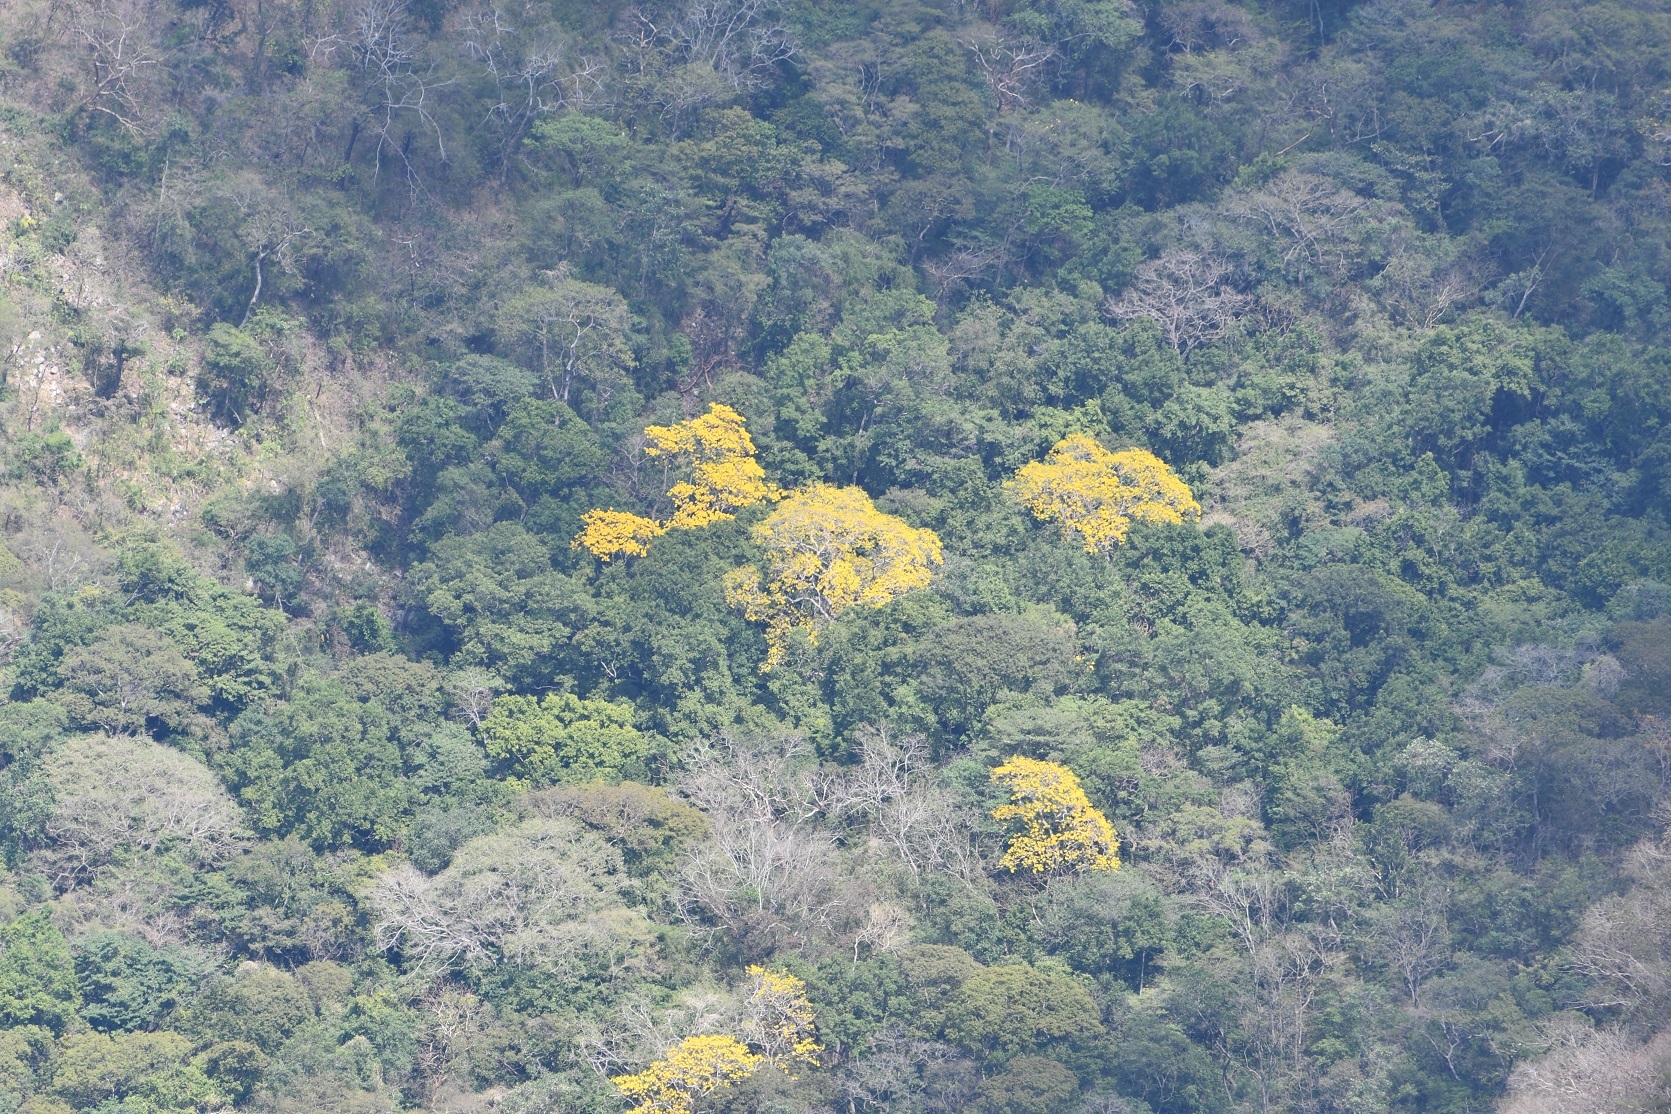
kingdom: Plantae
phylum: Tracheophyta
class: Magnoliopsida
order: Lamiales
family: Bignoniaceae
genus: Handroanthus
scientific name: Handroanthus chrysanthus
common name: Trumpet trees
